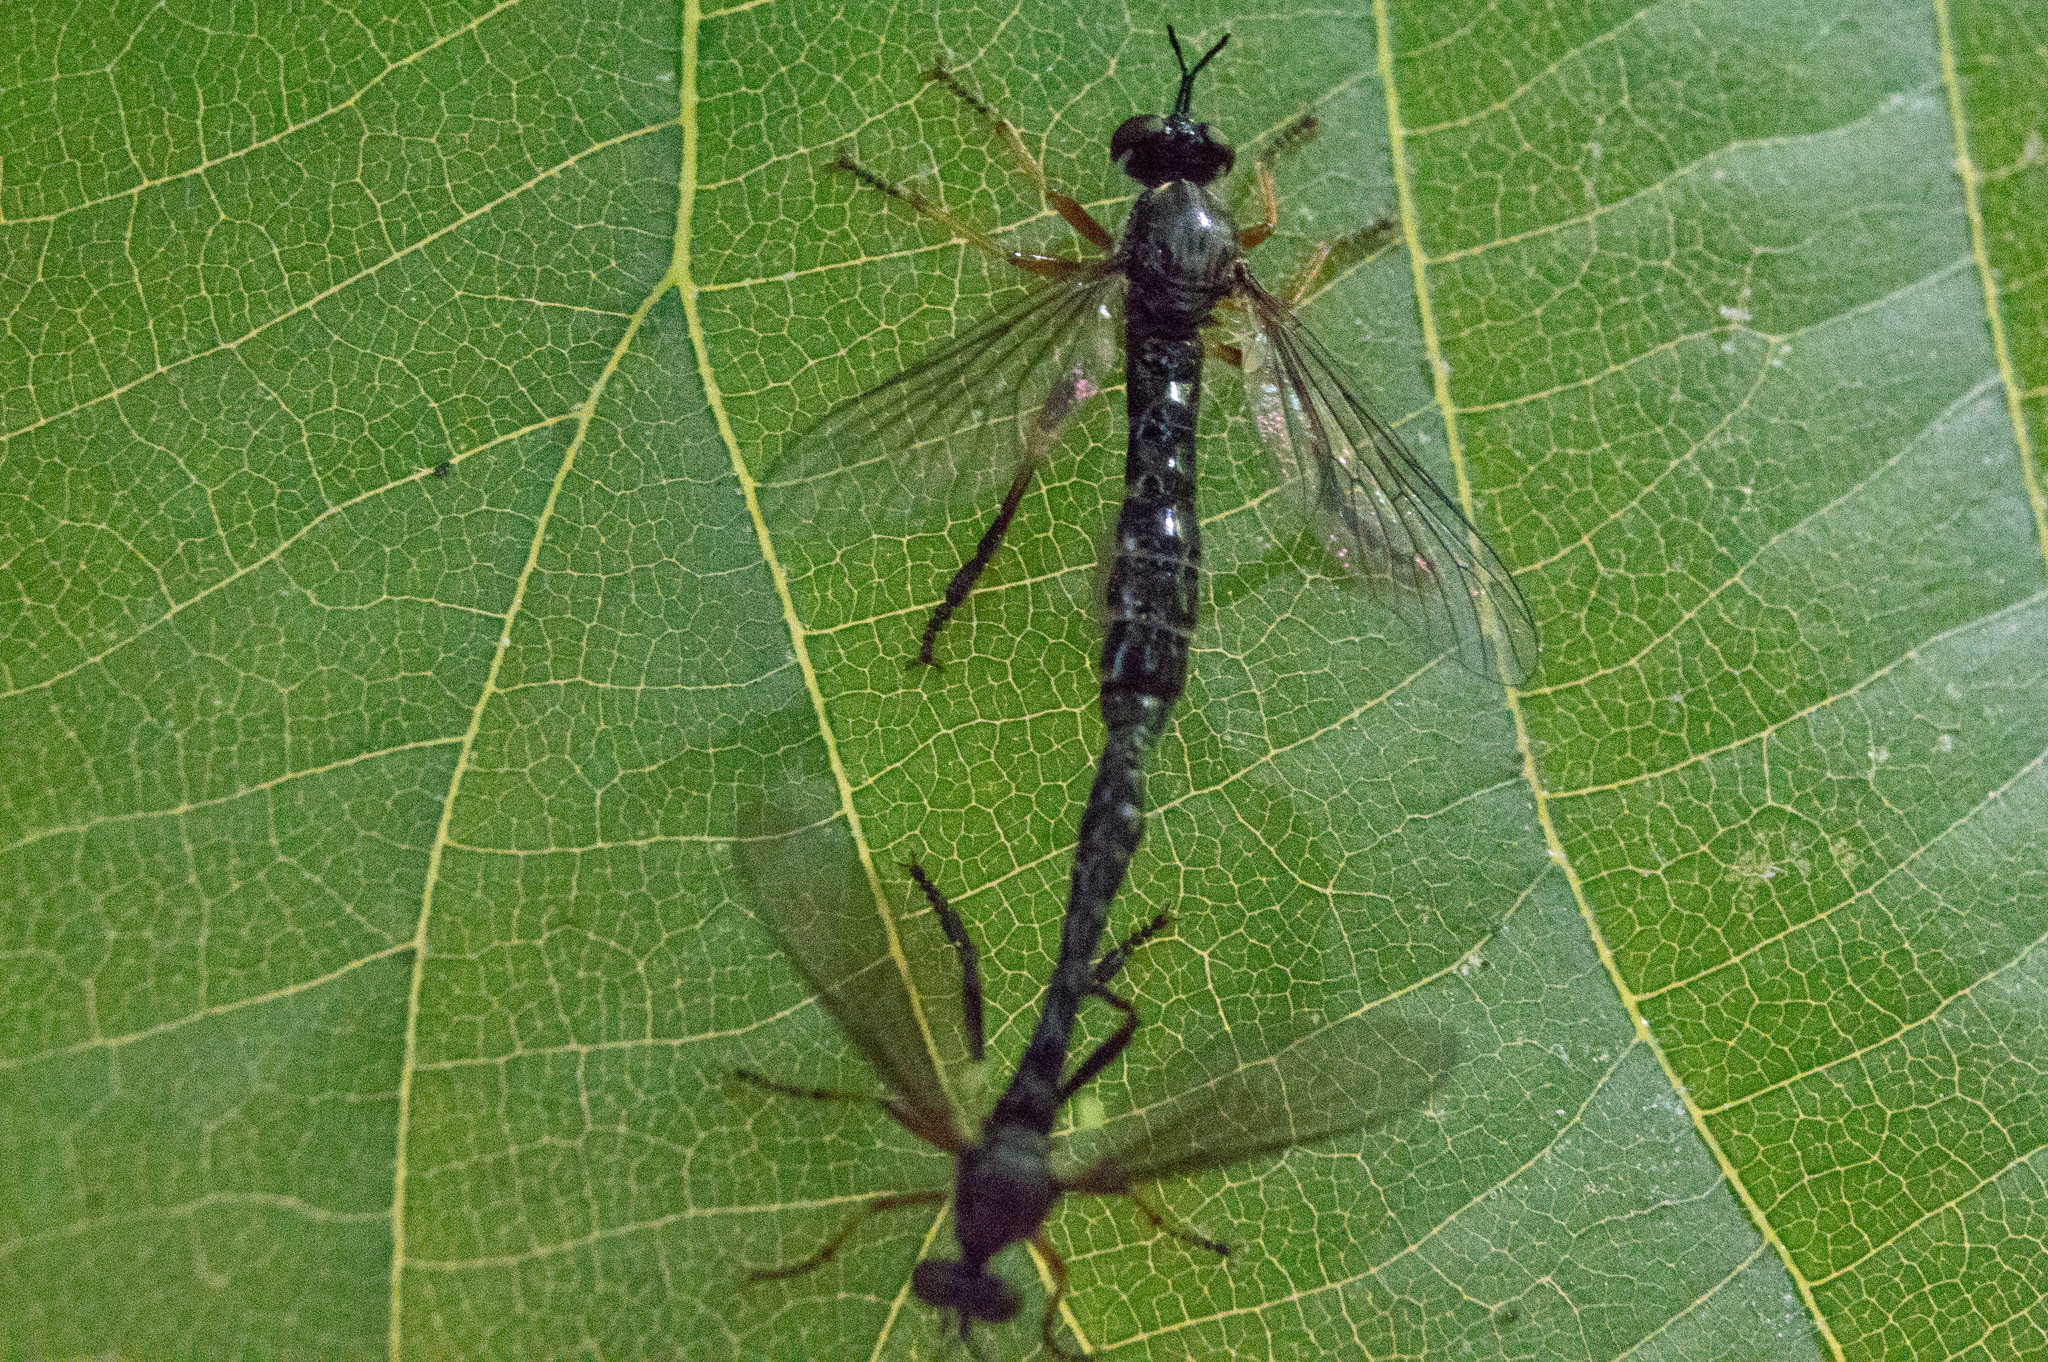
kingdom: Animalia
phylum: Arthropoda
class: Insecta
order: Diptera
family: Asilidae
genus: Dioctria
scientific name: Dioctria hyalipennis
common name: Stripe-legged robberfly
